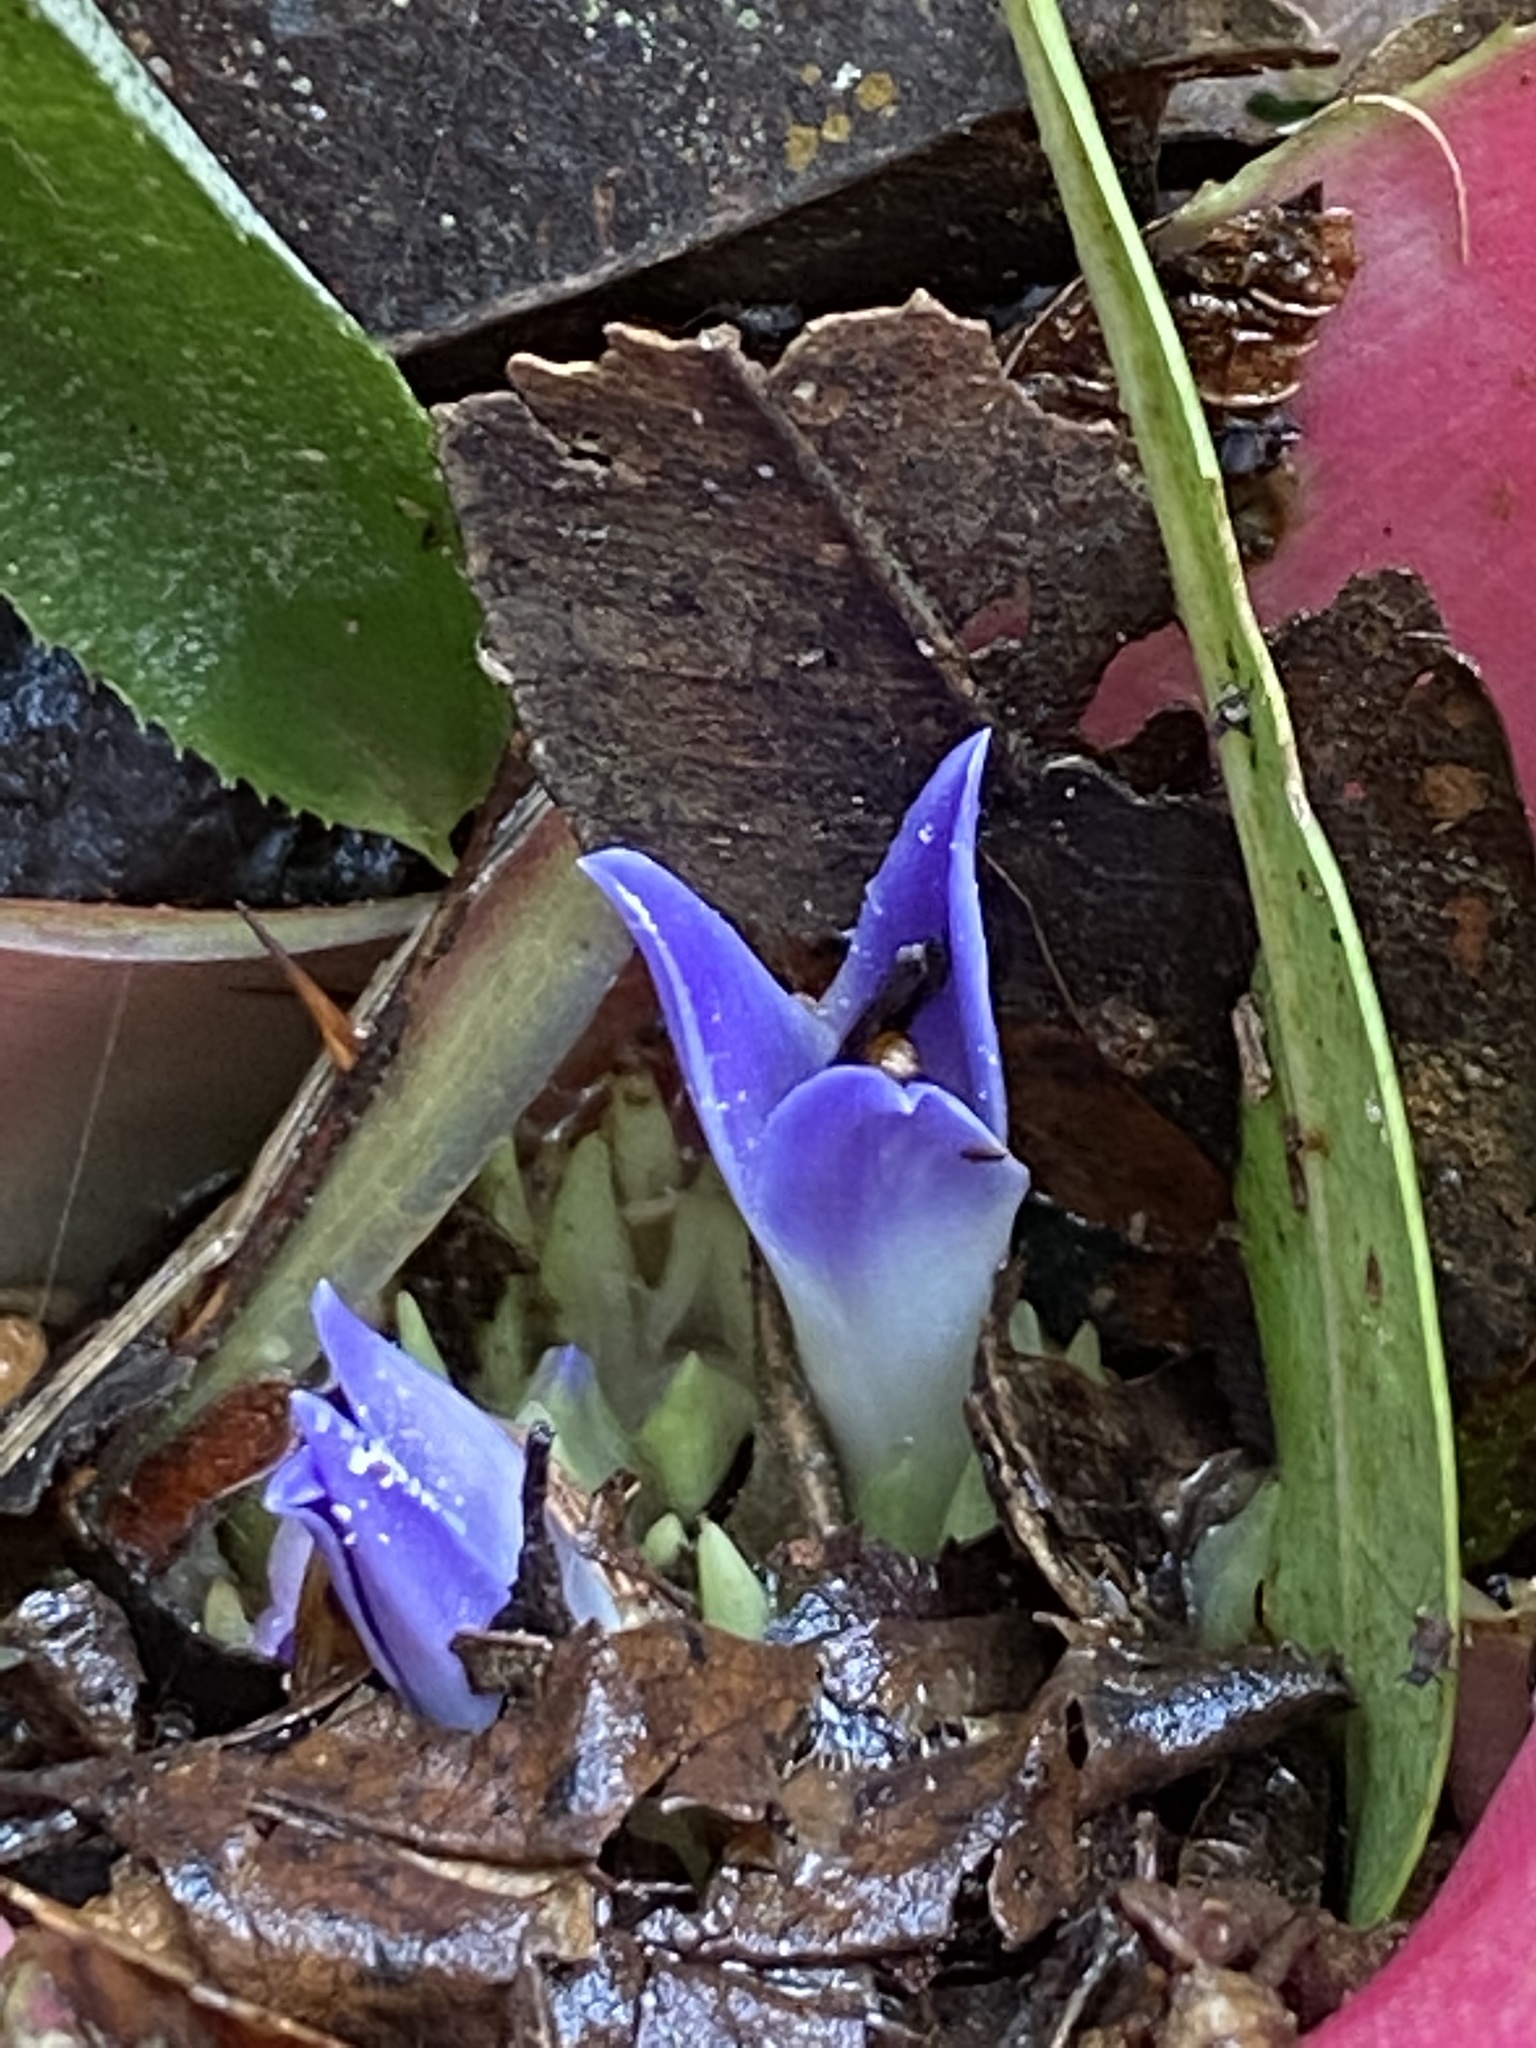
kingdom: Plantae
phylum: Tracheophyta
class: Liliopsida
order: Poales
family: Bromeliaceae
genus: Neoregelia
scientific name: Neoregelia carolinae
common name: Blushing bromeliad
